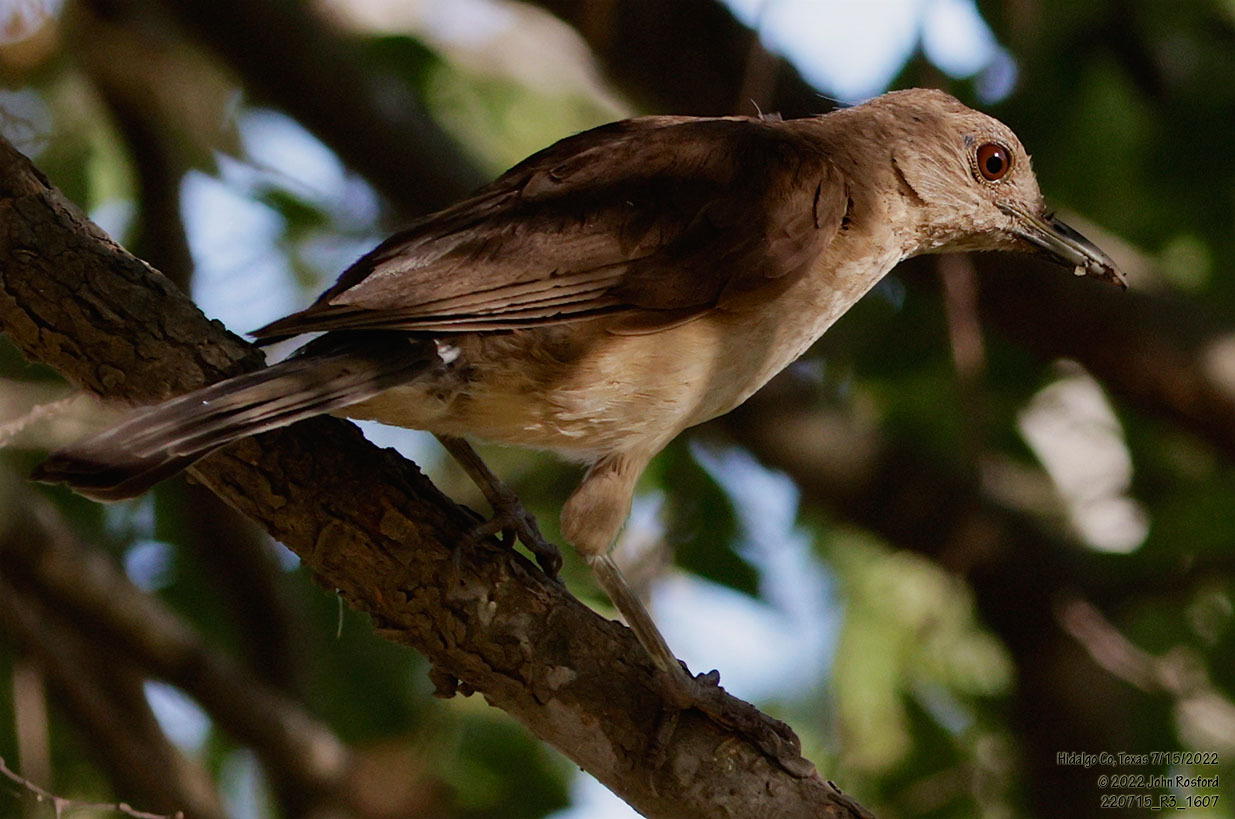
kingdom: Animalia
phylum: Chordata
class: Aves
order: Passeriformes
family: Turdidae
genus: Turdus
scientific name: Turdus grayi
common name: Clay-colored thrush
